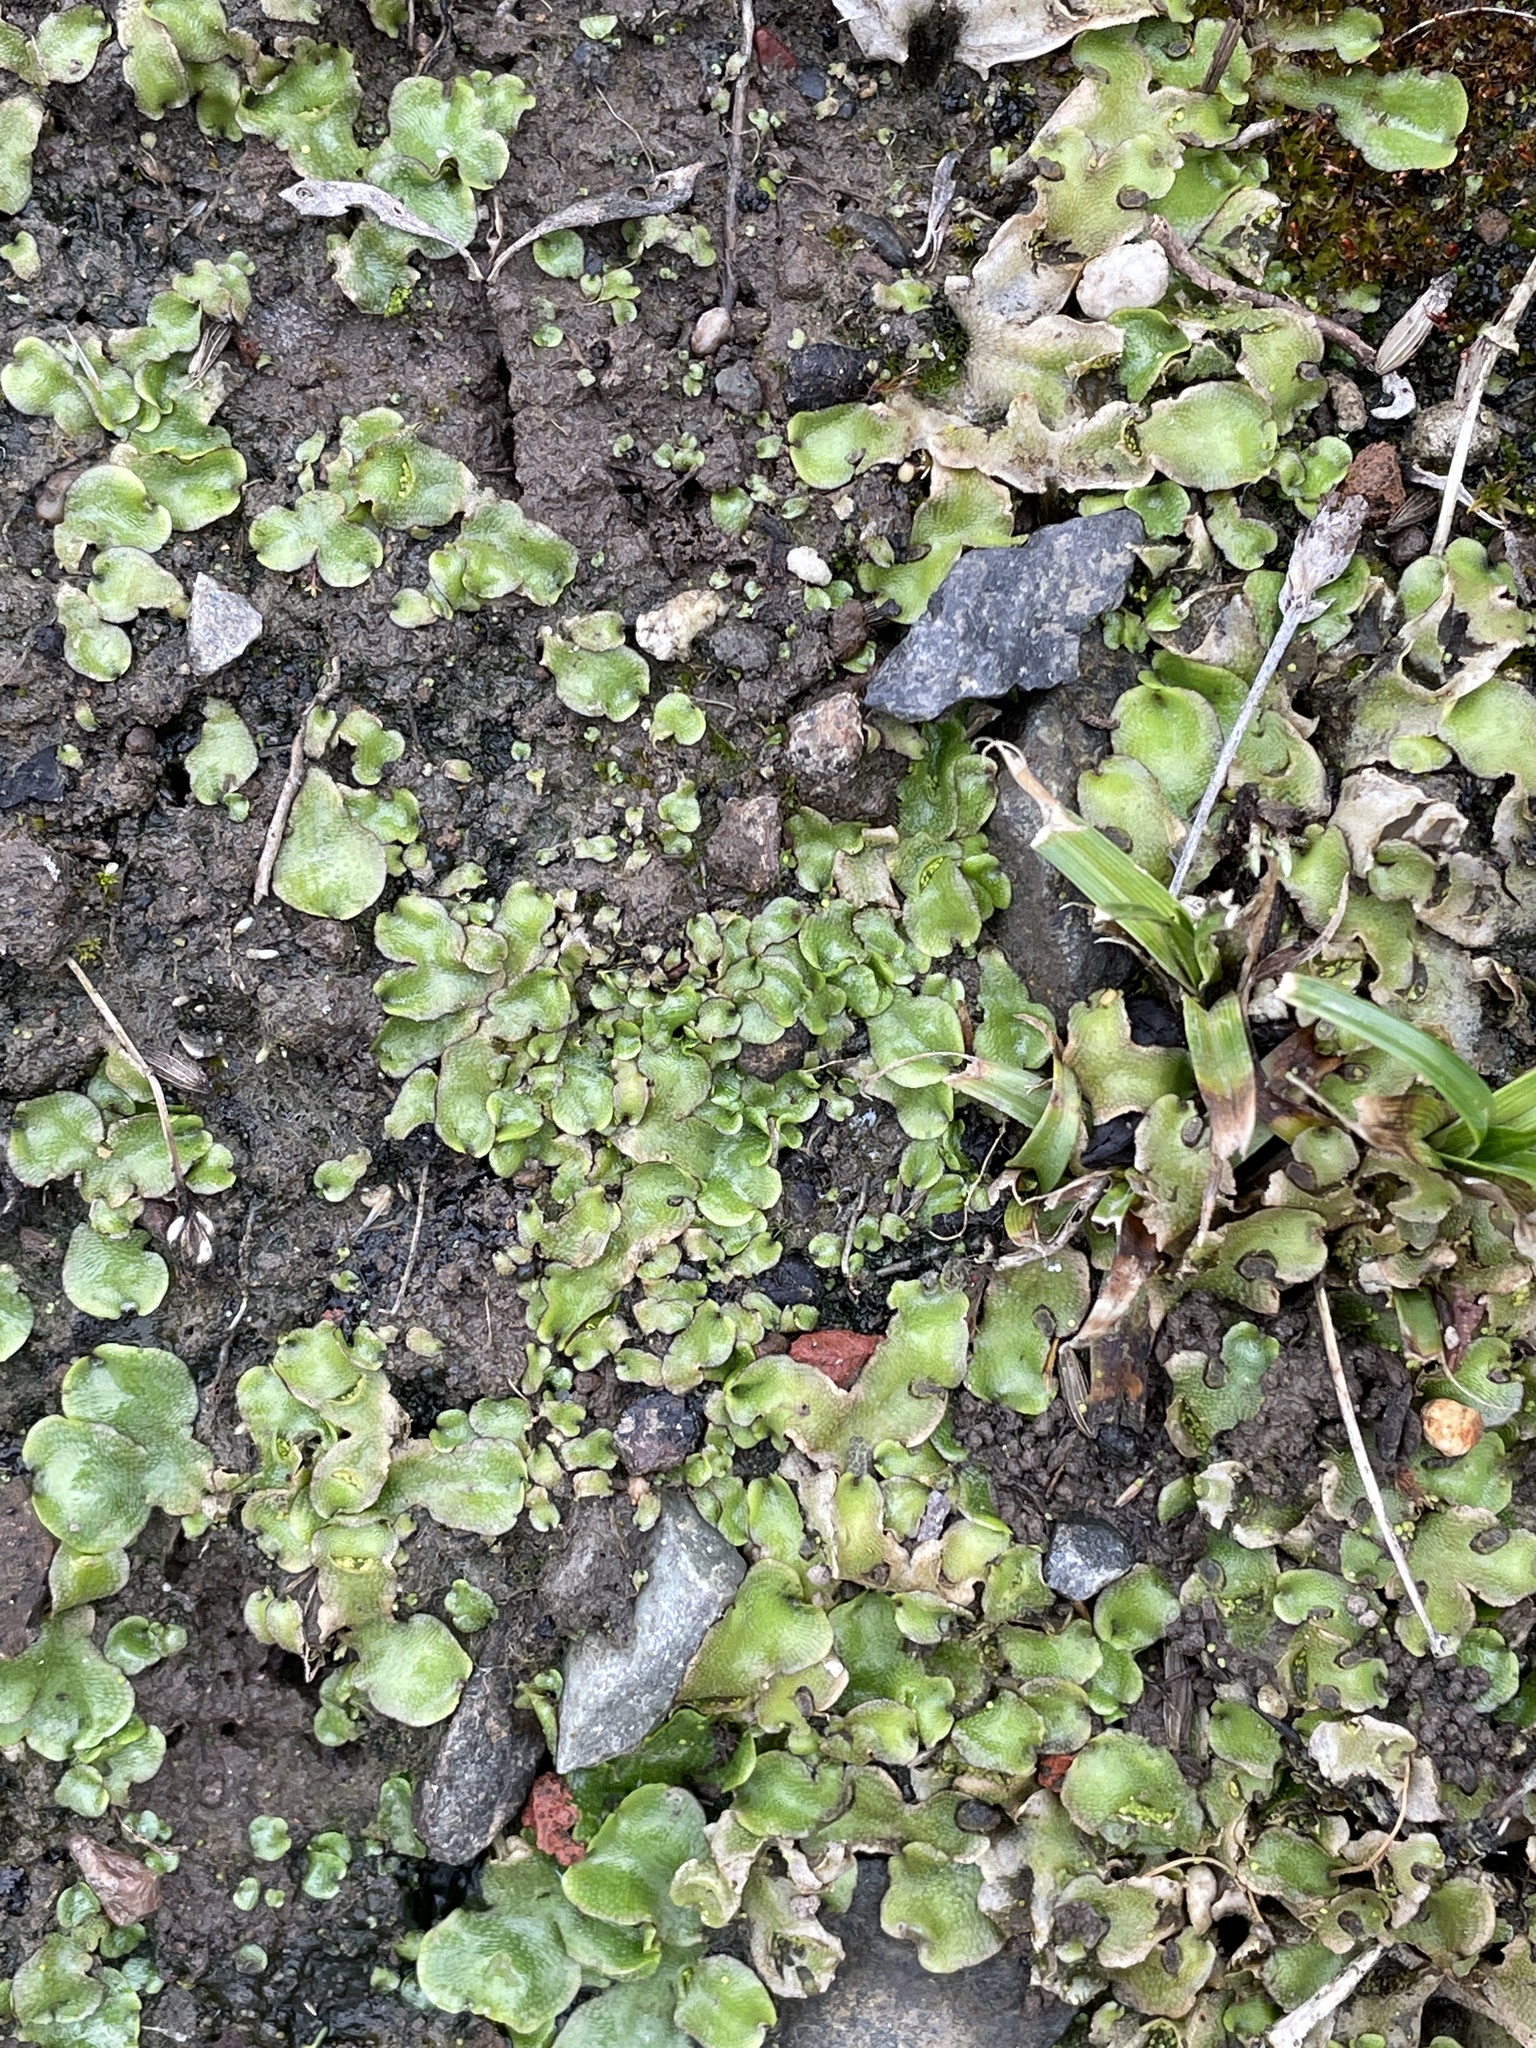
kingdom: Plantae
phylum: Marchantiophyta
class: Marchantiopsida
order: Lunulariales
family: Lunulariaceae
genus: Lunularia
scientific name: Lunularia cruciata
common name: Crescent-cup liverwort
